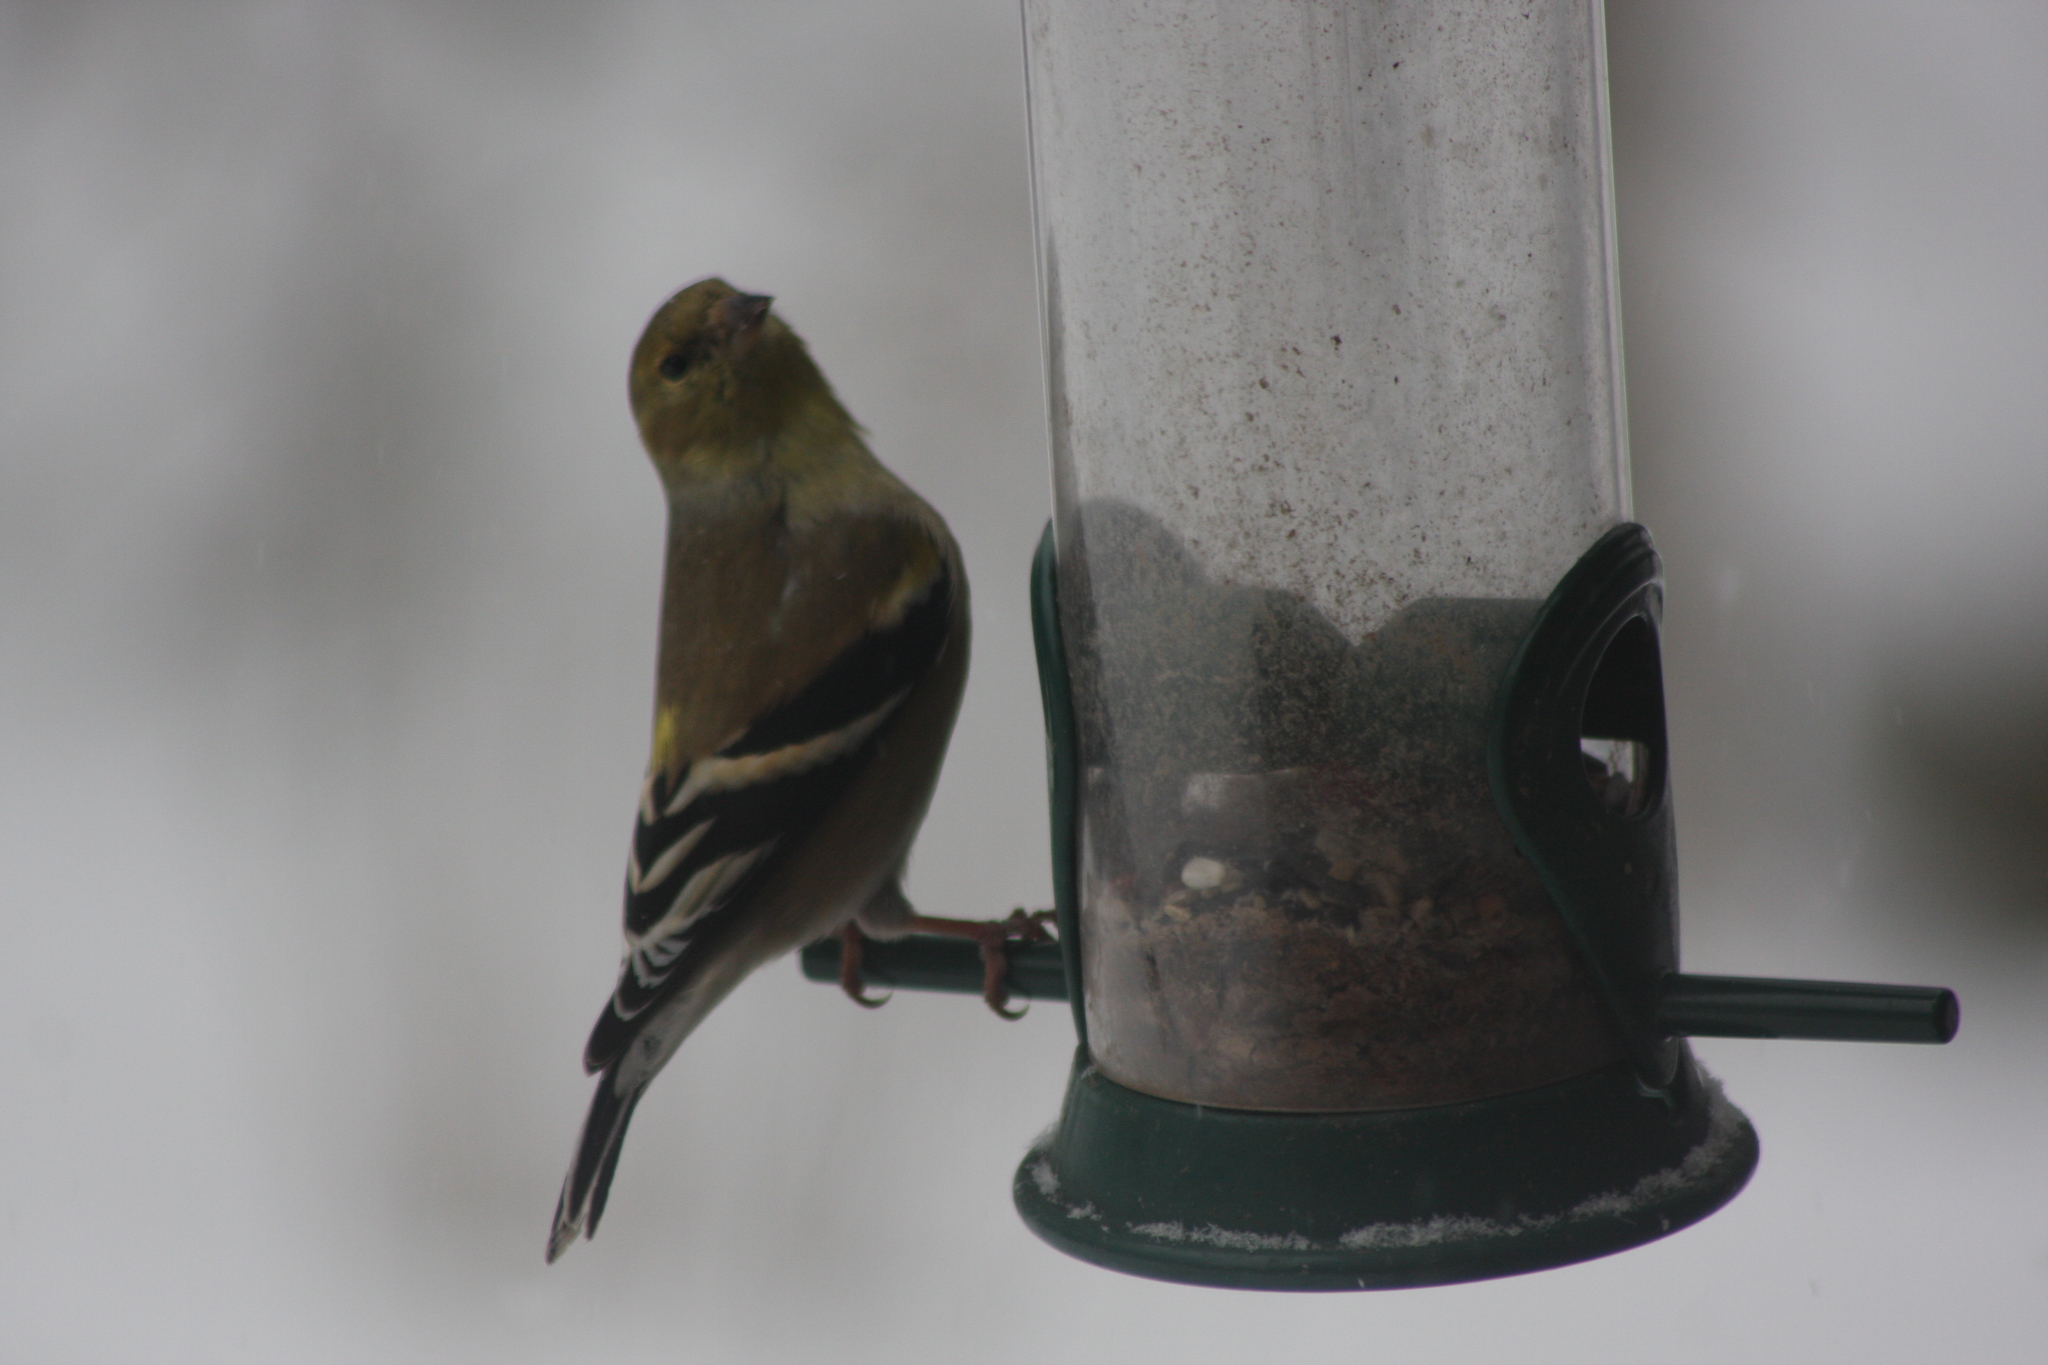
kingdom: Animalia
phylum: Chordata
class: Aves
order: Passeriformes
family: Fringillidae
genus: Spinus
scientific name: Spinus tristis
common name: American goldfinch
